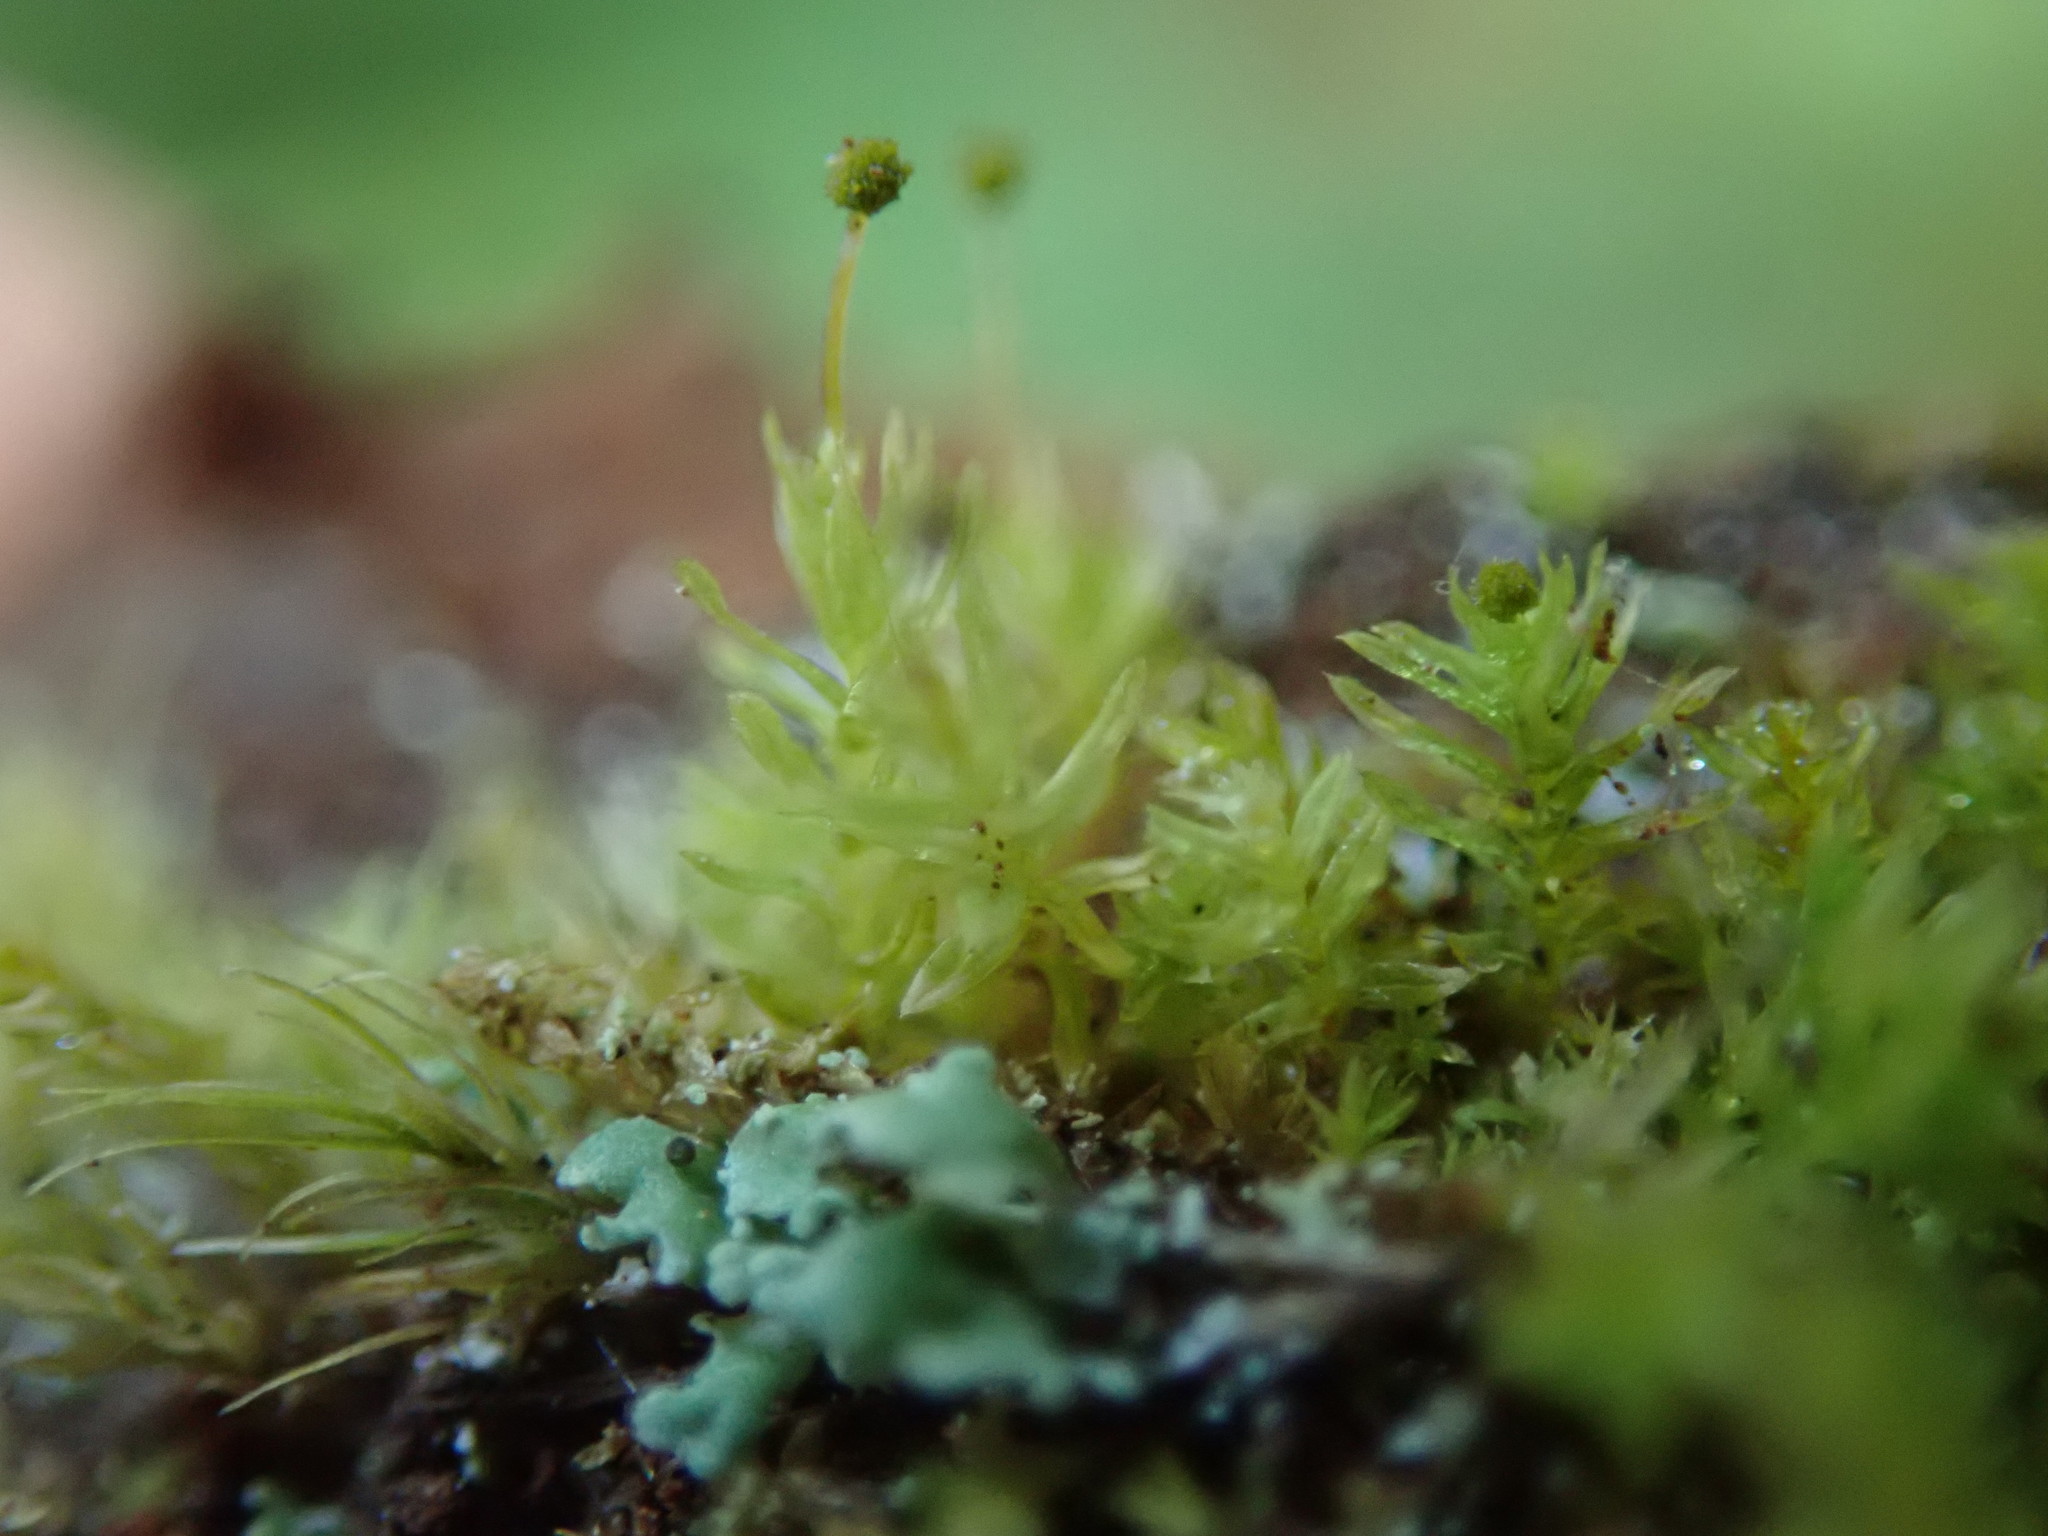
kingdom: Plantae
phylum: Bryophyta
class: Bryopsida
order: Aulacomniales
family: Aulacomniaceae
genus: Aulacomnium
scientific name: Aulacomnium androgynum
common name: Little groove moss
